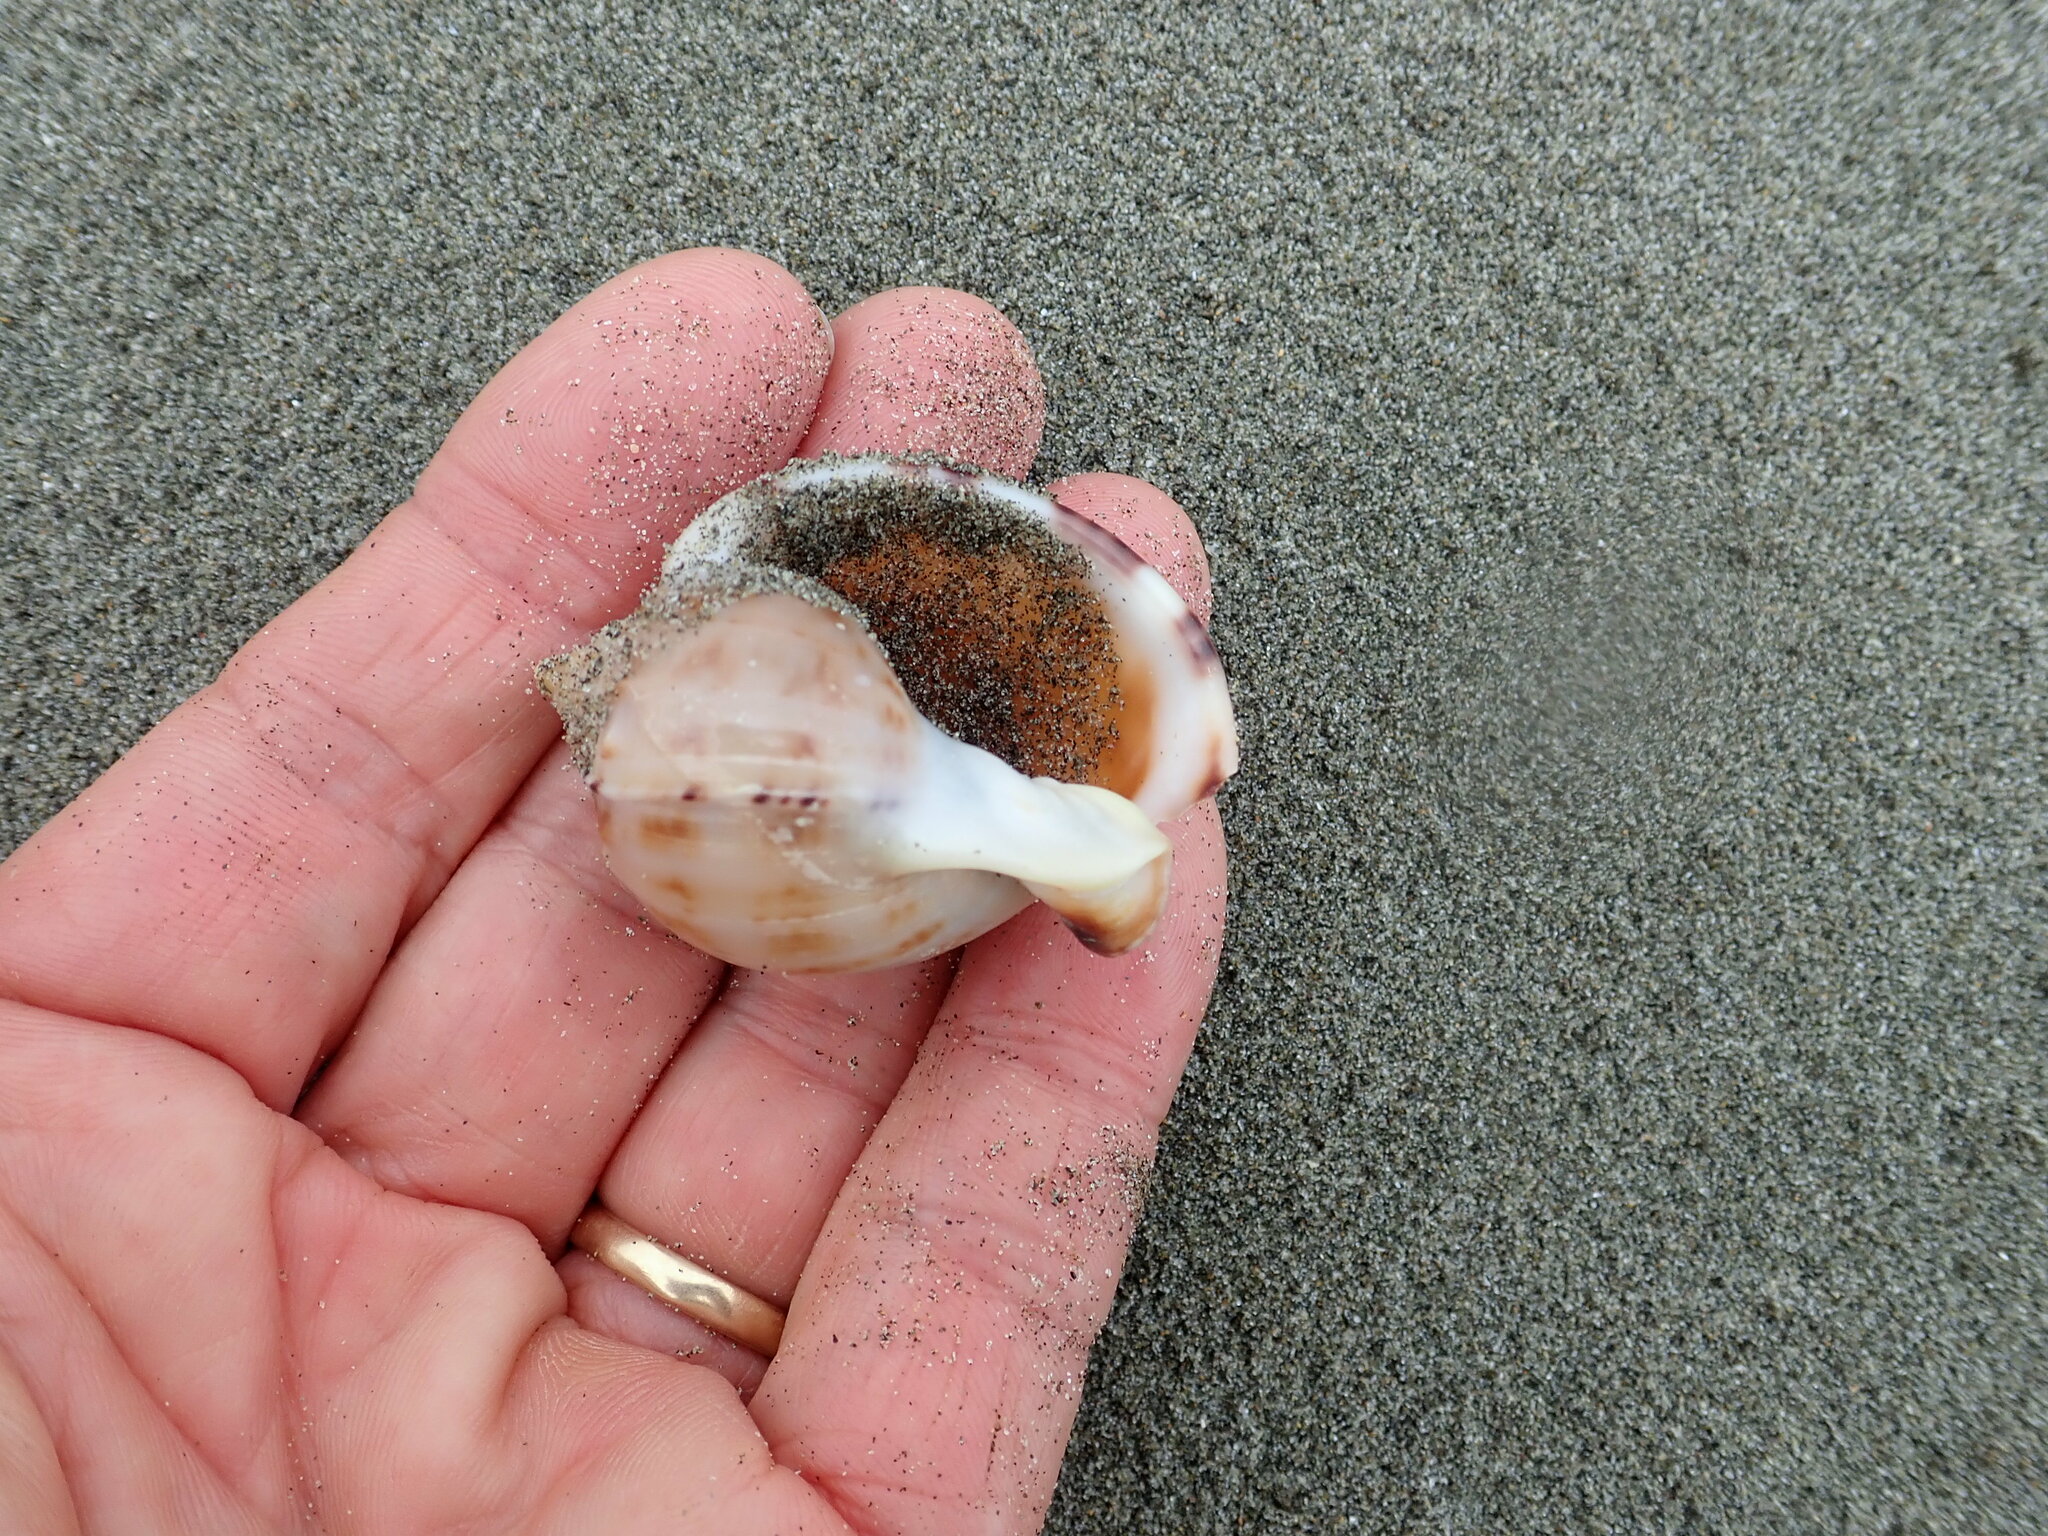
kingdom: Animalia
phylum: Mollusca
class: Gastropoda
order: Littorinimorpha
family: Cassidae
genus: Semicassis
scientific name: Semicassis pyrum
